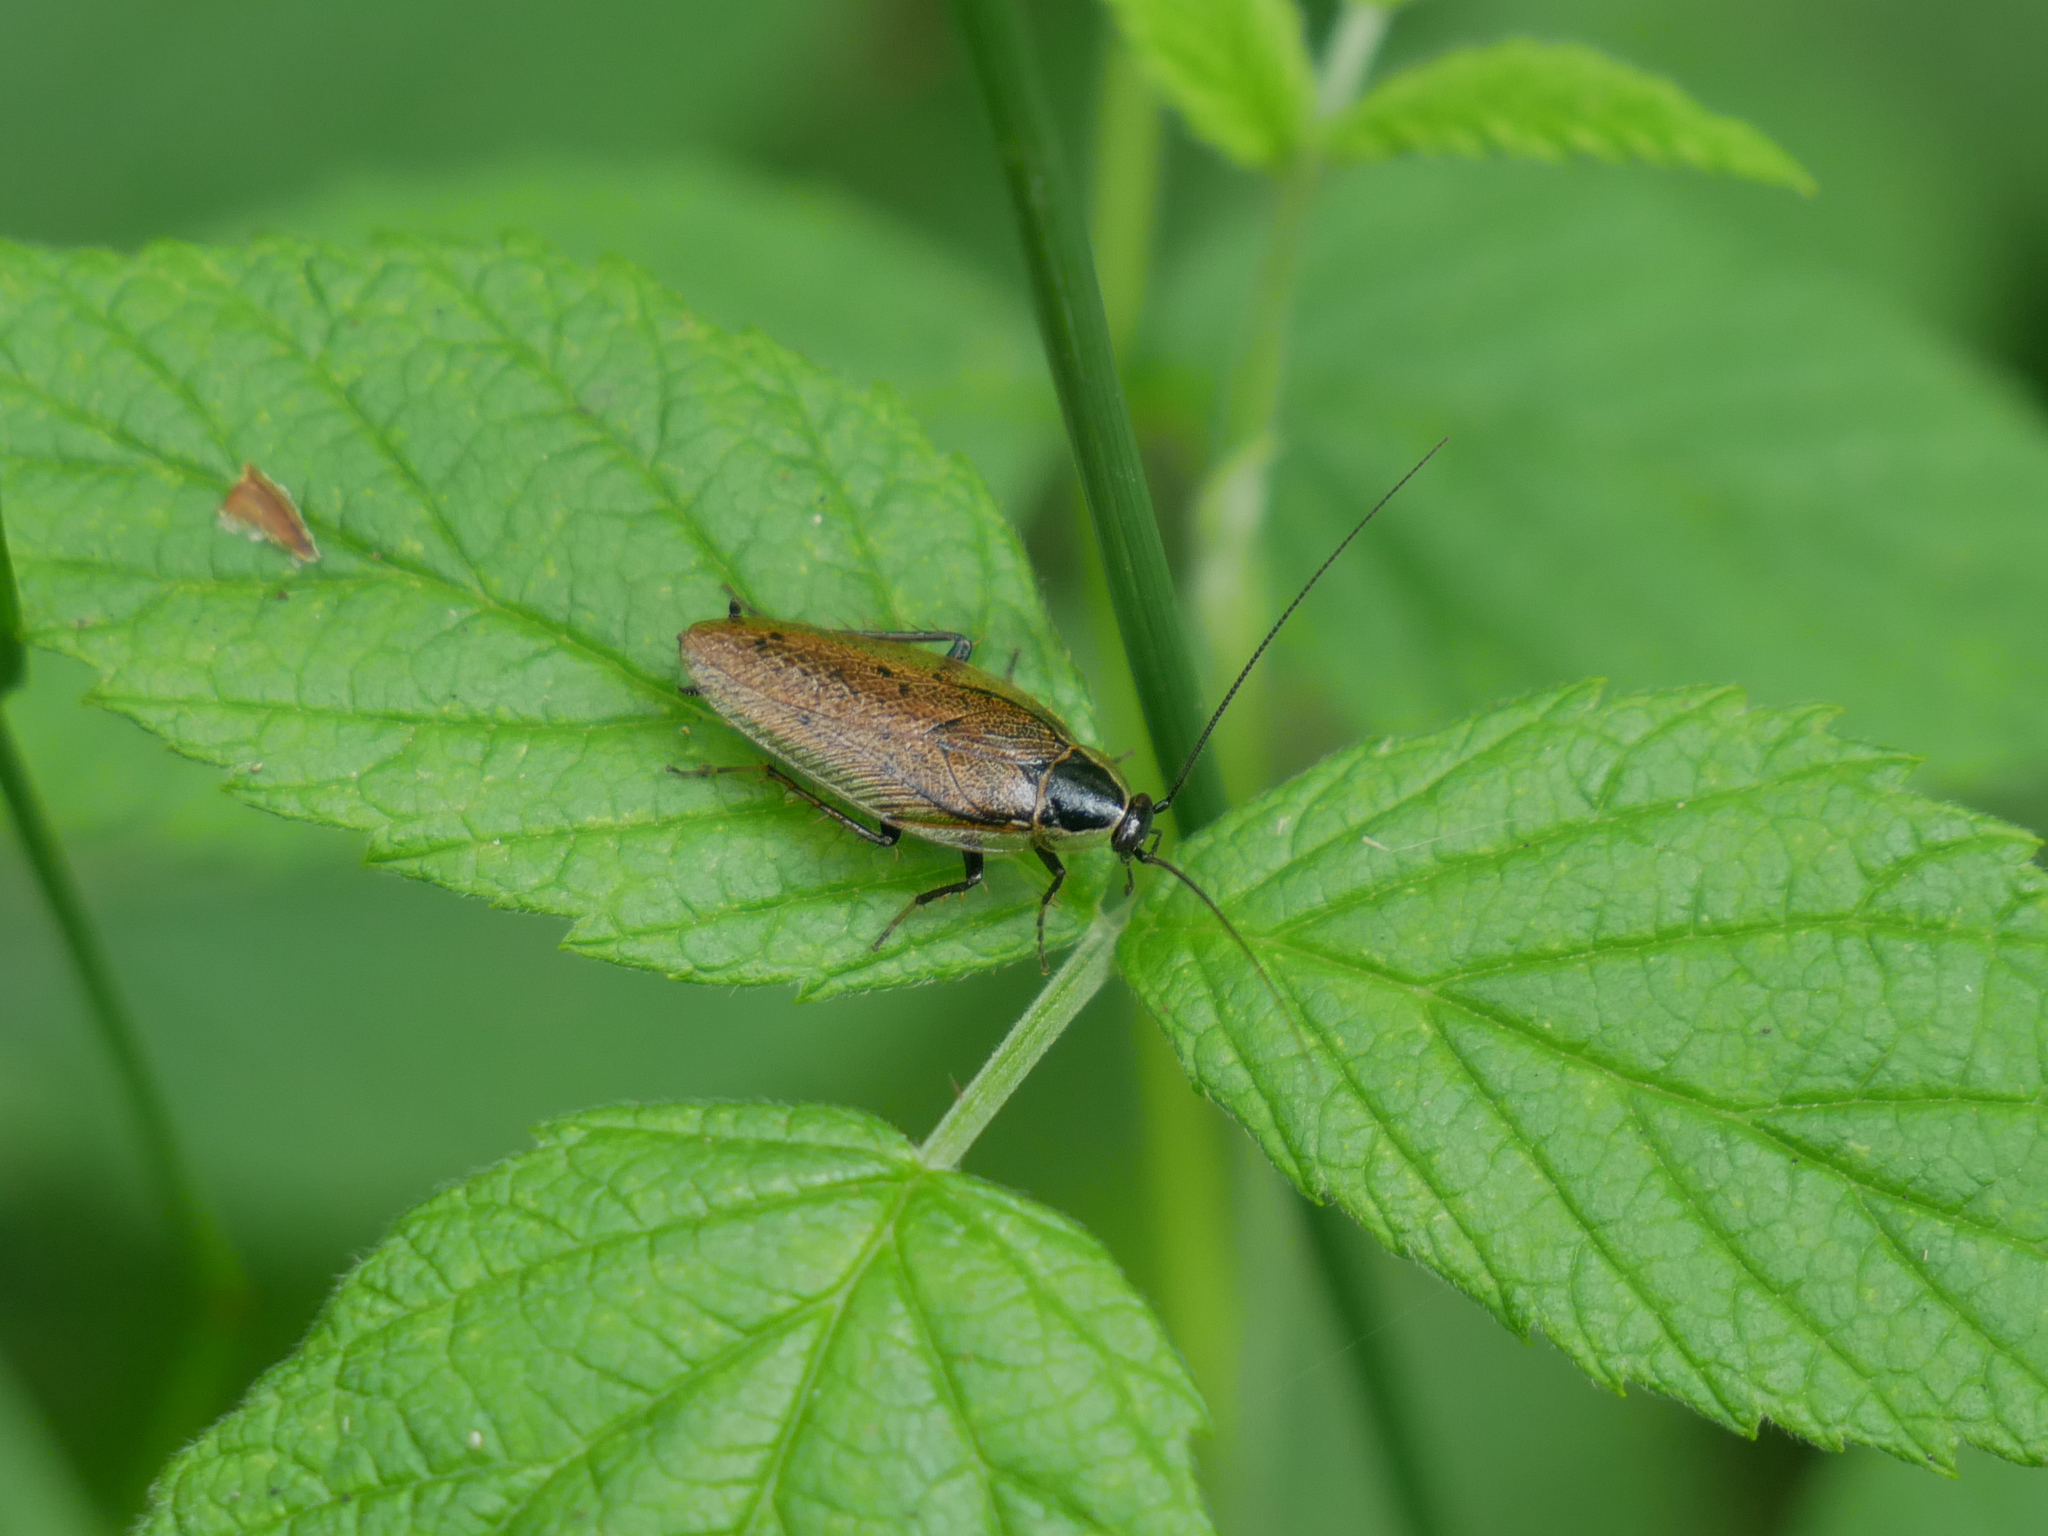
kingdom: Animalia
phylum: Arthropoda
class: Insecta
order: Blattodea
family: Ectobiidae
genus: Ectobius
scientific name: Ectobius sylvestris
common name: Forest cockroach
